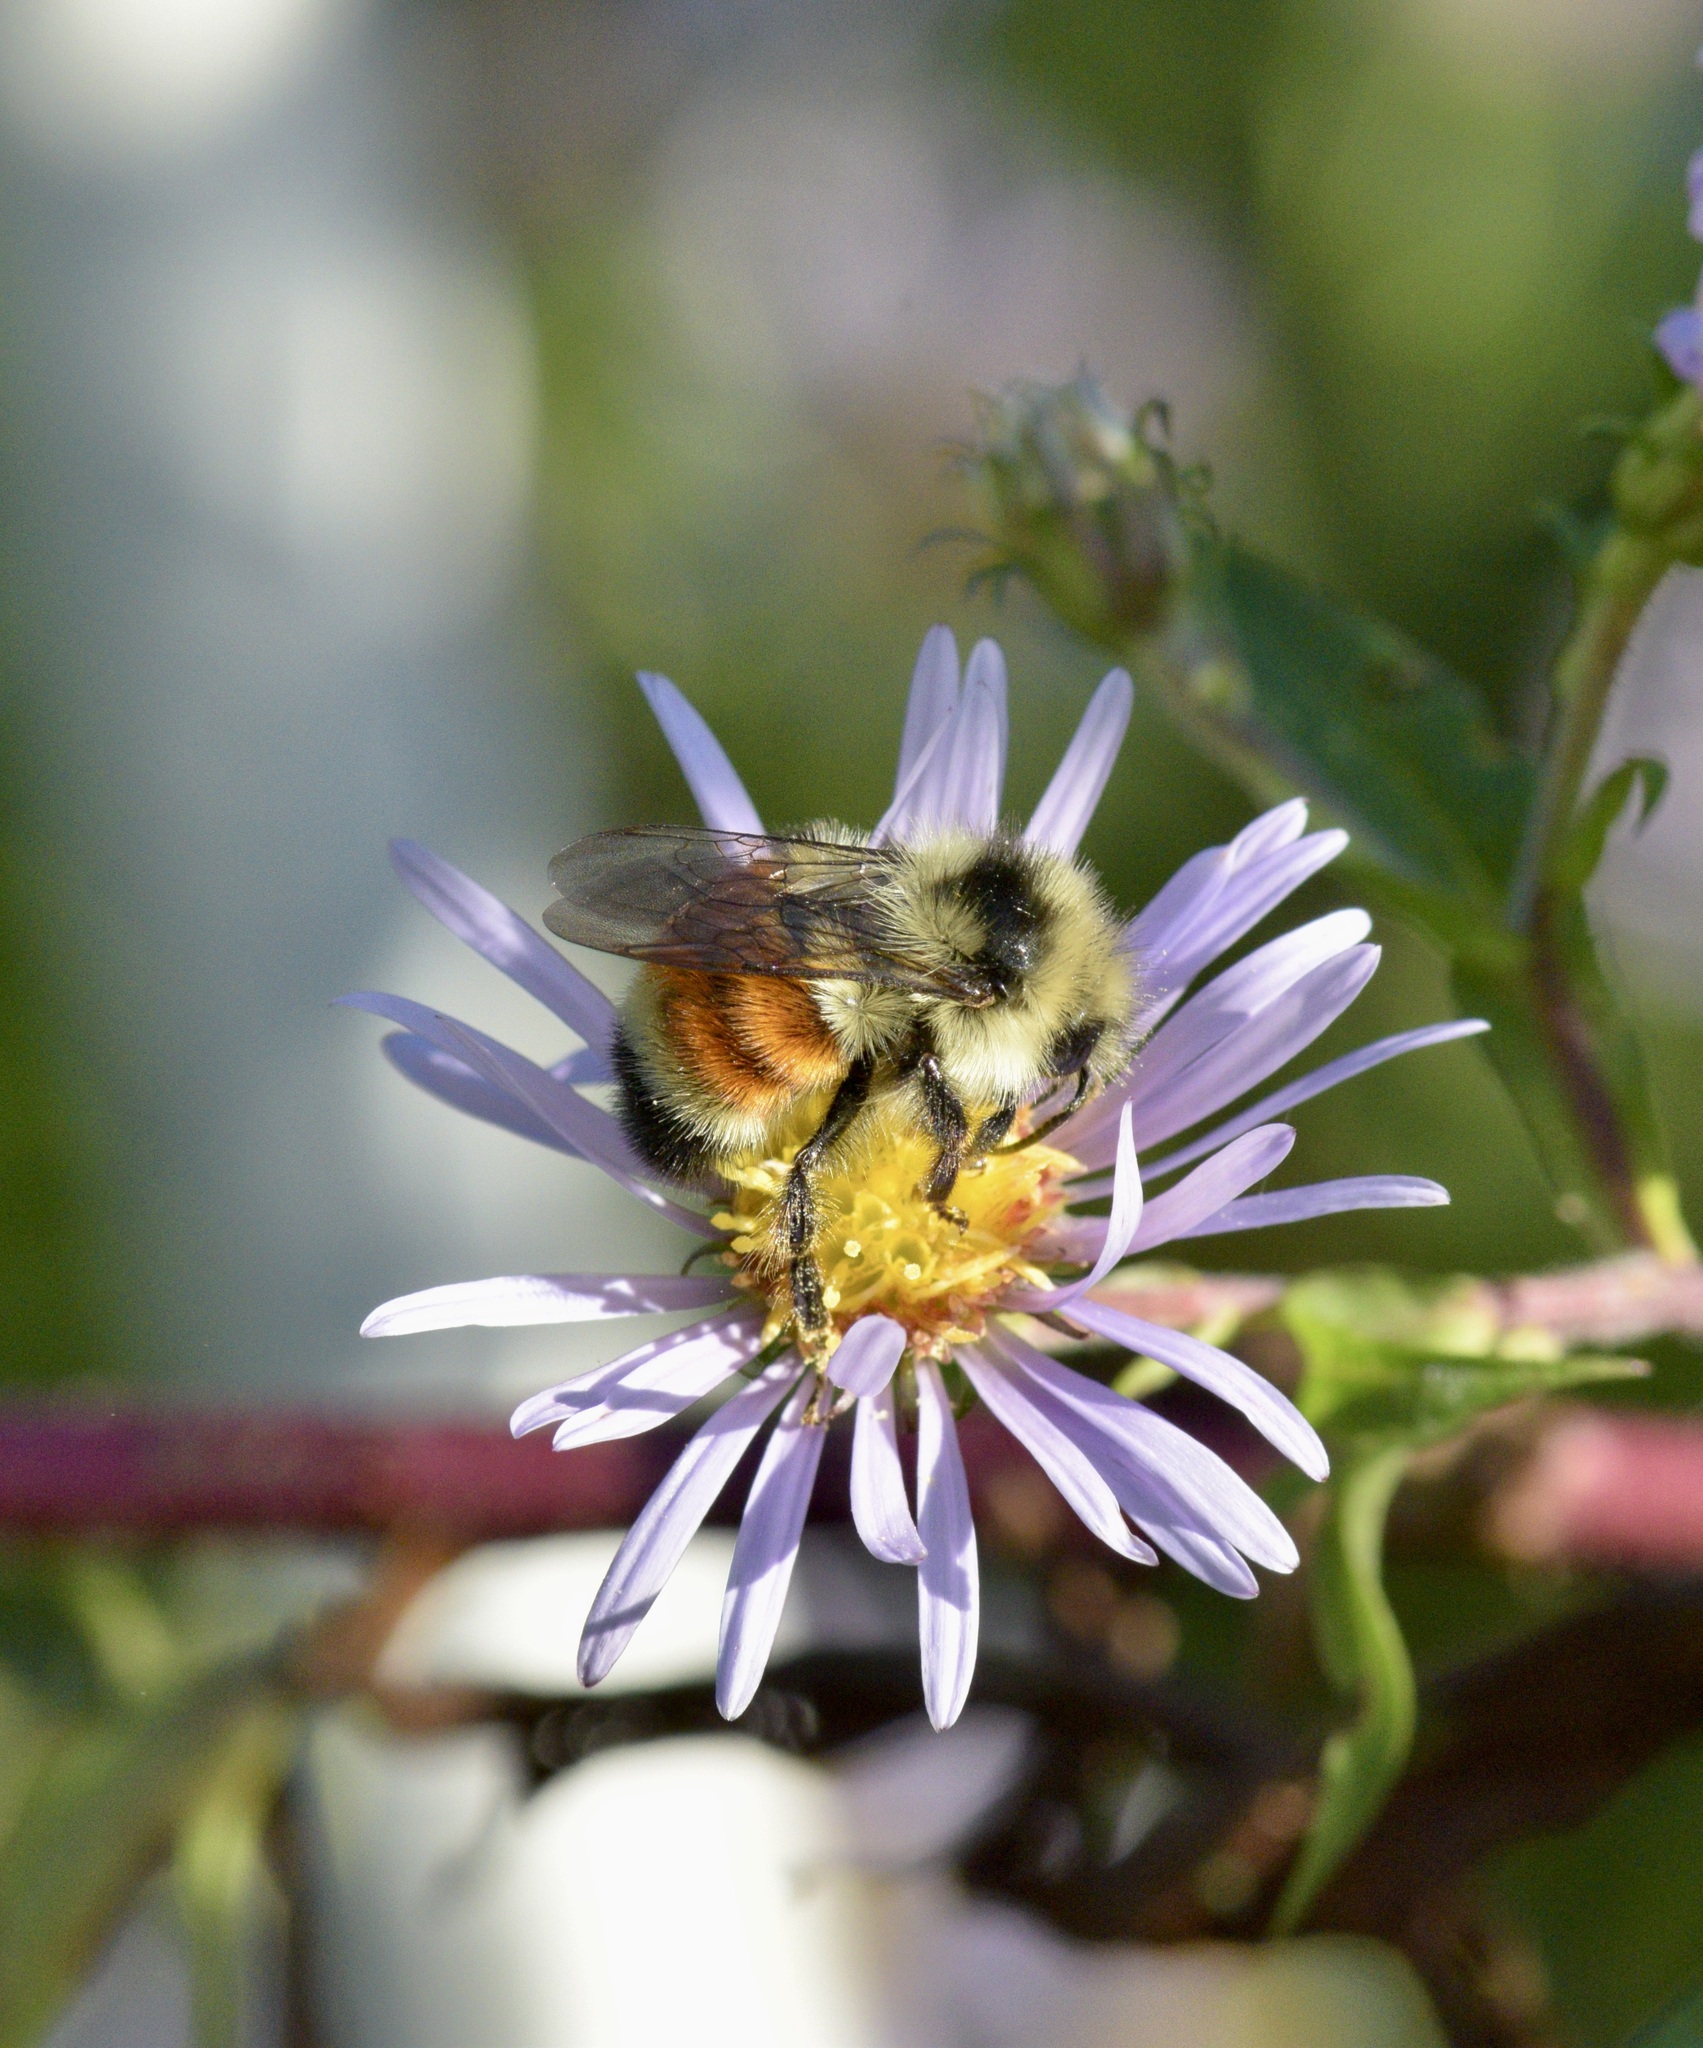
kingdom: Animalia
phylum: Arthropoda
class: Insecta
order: Hymenoptera
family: Apidae
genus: Bombus
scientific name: Bombus ternarius
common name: Tri-colored bumble bee
